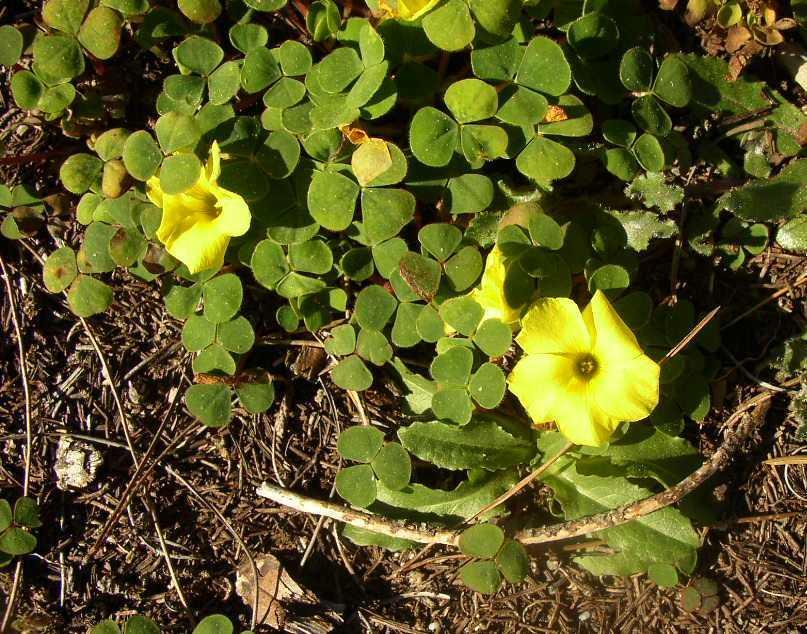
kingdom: Plantae
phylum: Tracheophyta
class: Magnoliopsida
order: Oxalidales
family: Oxalidaceae
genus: Oxalis
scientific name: Oxalis luteola
